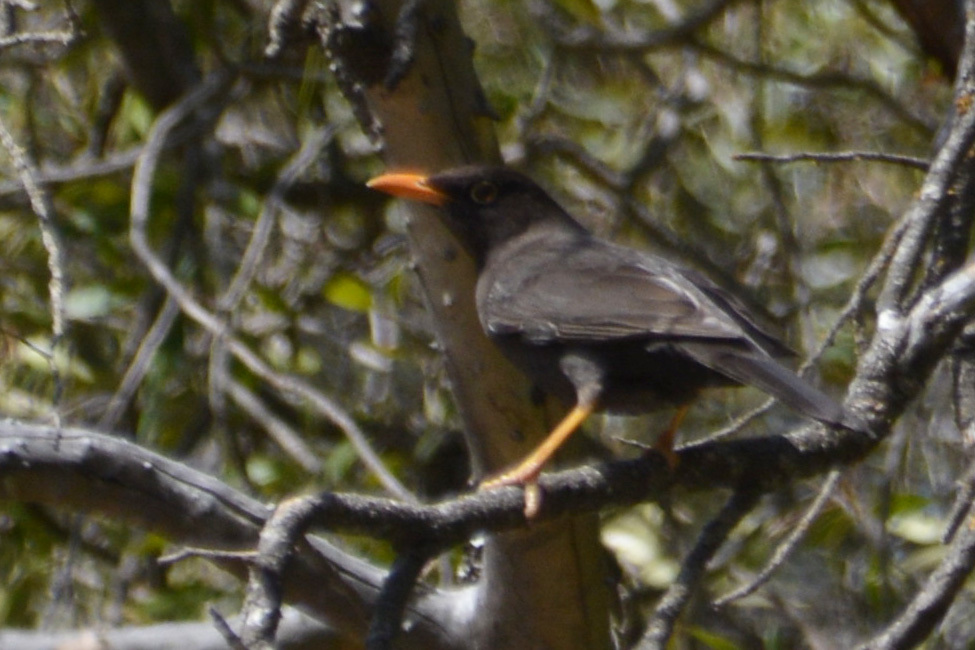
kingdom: Animalia
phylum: Chordata
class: Aves
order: Passeriformes
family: Turdidae
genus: Turdus
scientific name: Turdus chiguanco
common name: Chiguanco thrush
